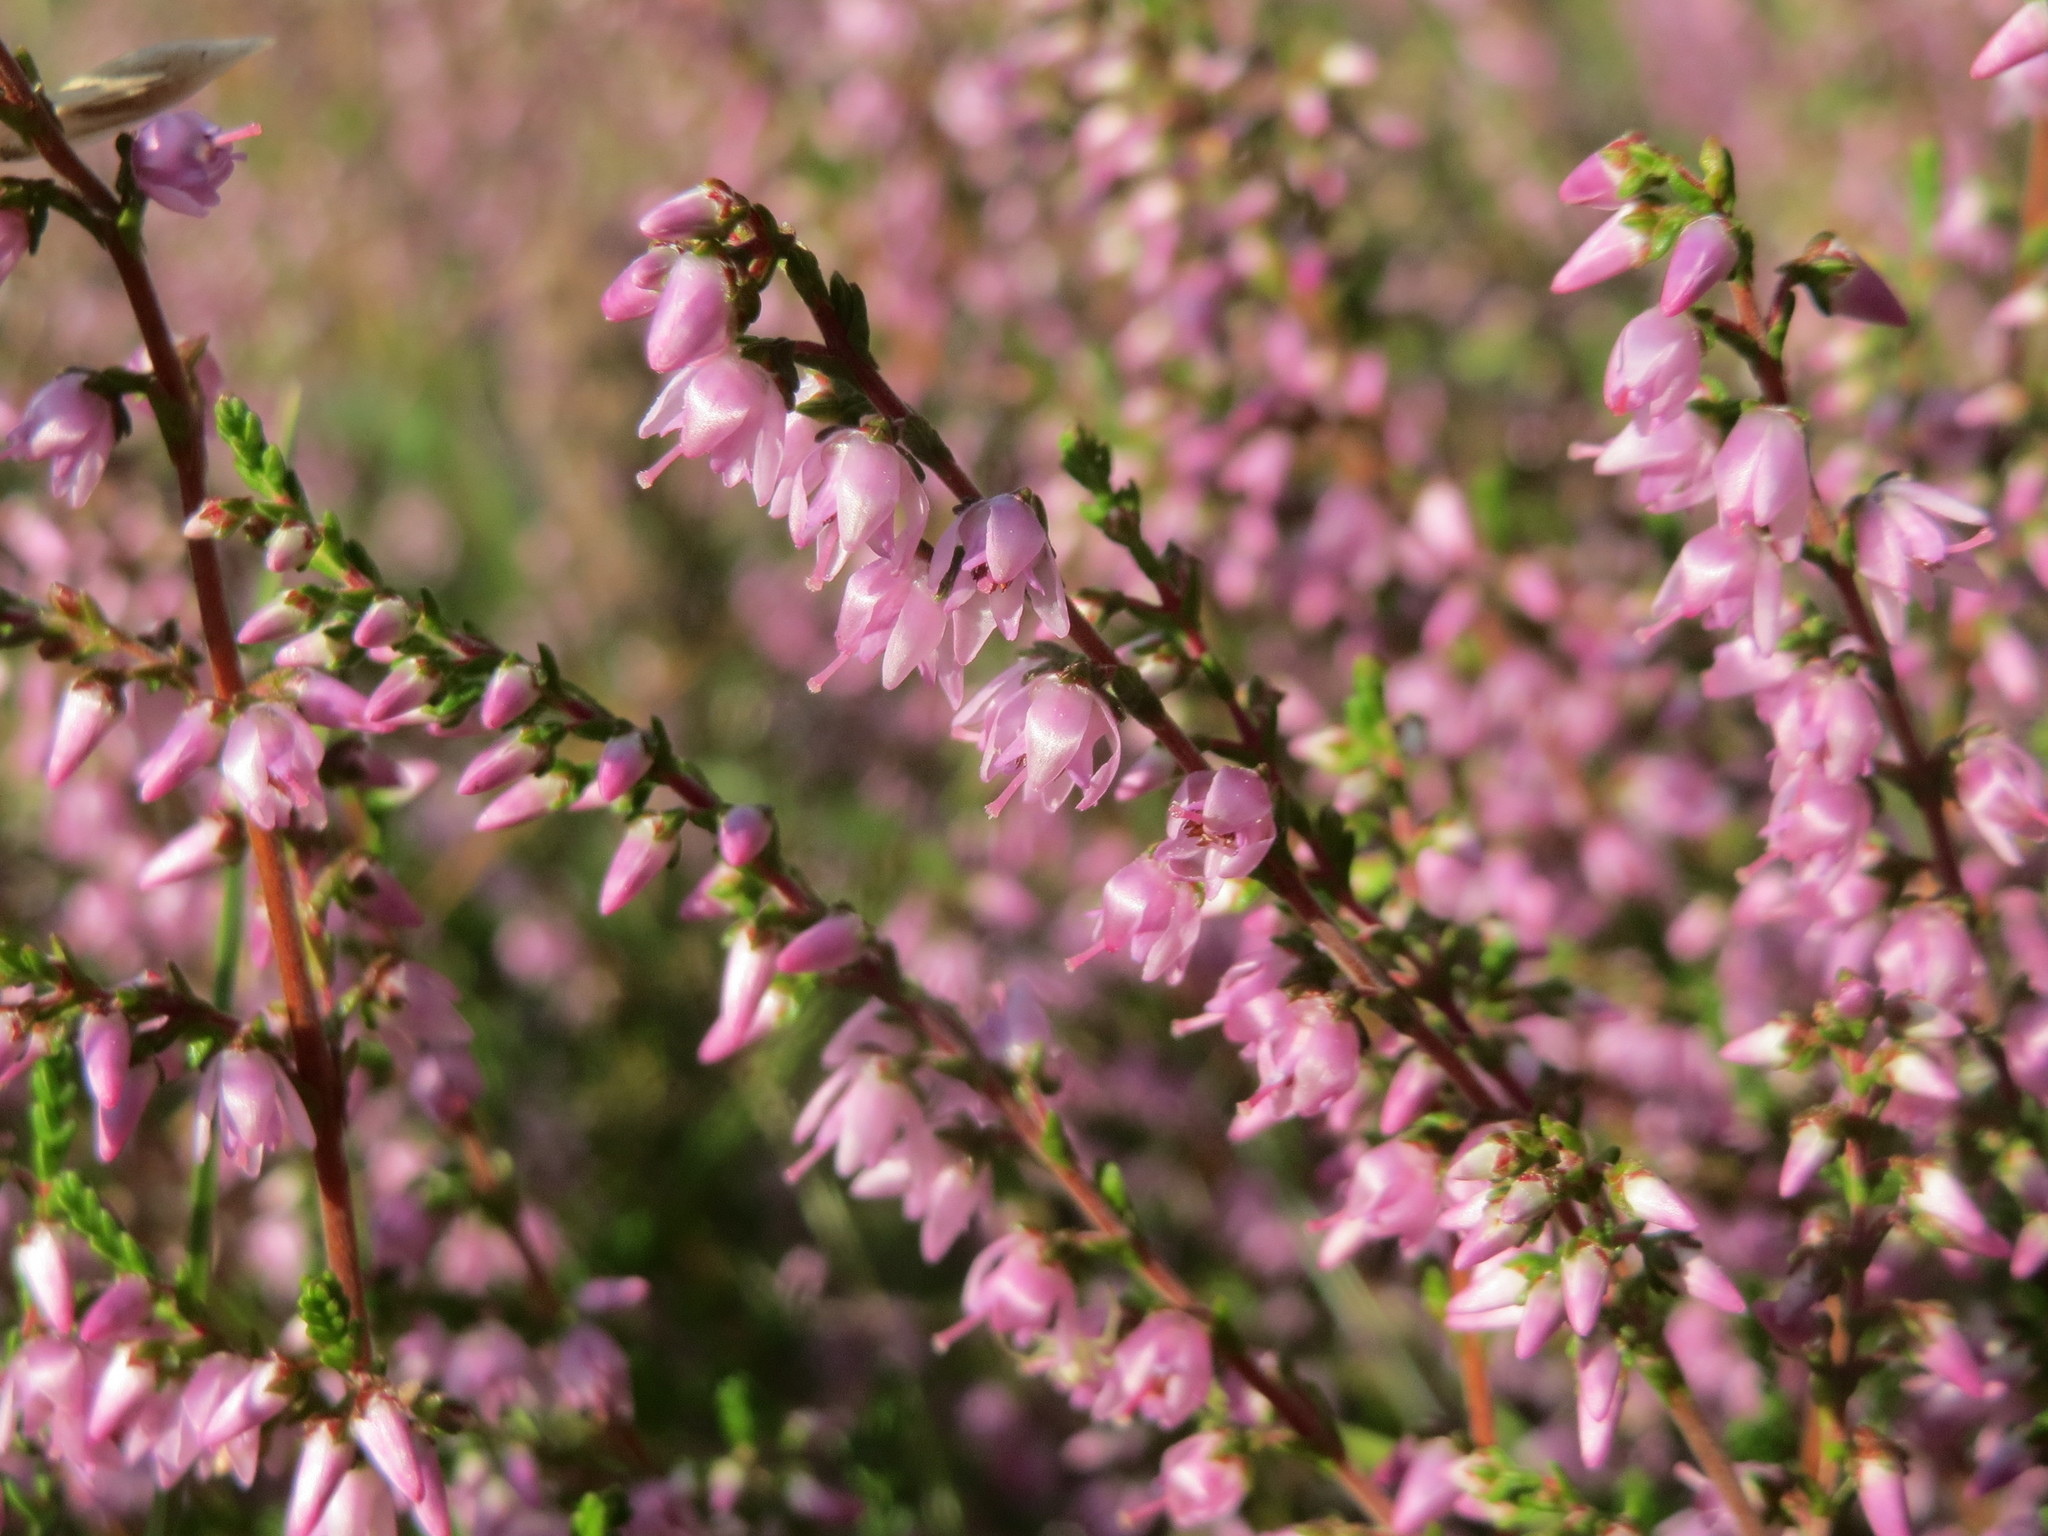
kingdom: Plantae
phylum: Tracheophyta
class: Magnoliopsida
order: Ericales
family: Ericaceae
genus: Calluna
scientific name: Calluna vulgaris
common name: Heather
